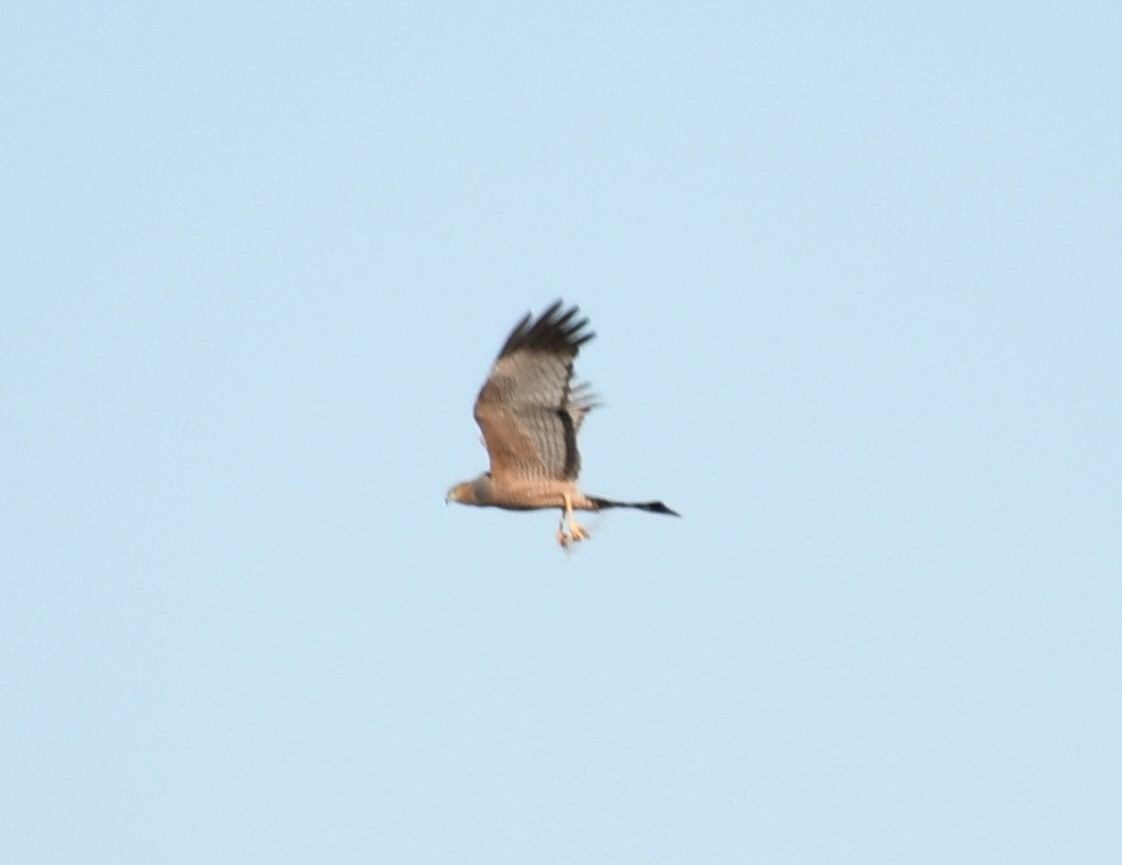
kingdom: Animalia
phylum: Chordata
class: Aves
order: Accipitriformes
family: Accipitridae
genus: Circus
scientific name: Circus assimilis
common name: Spotted harrier
